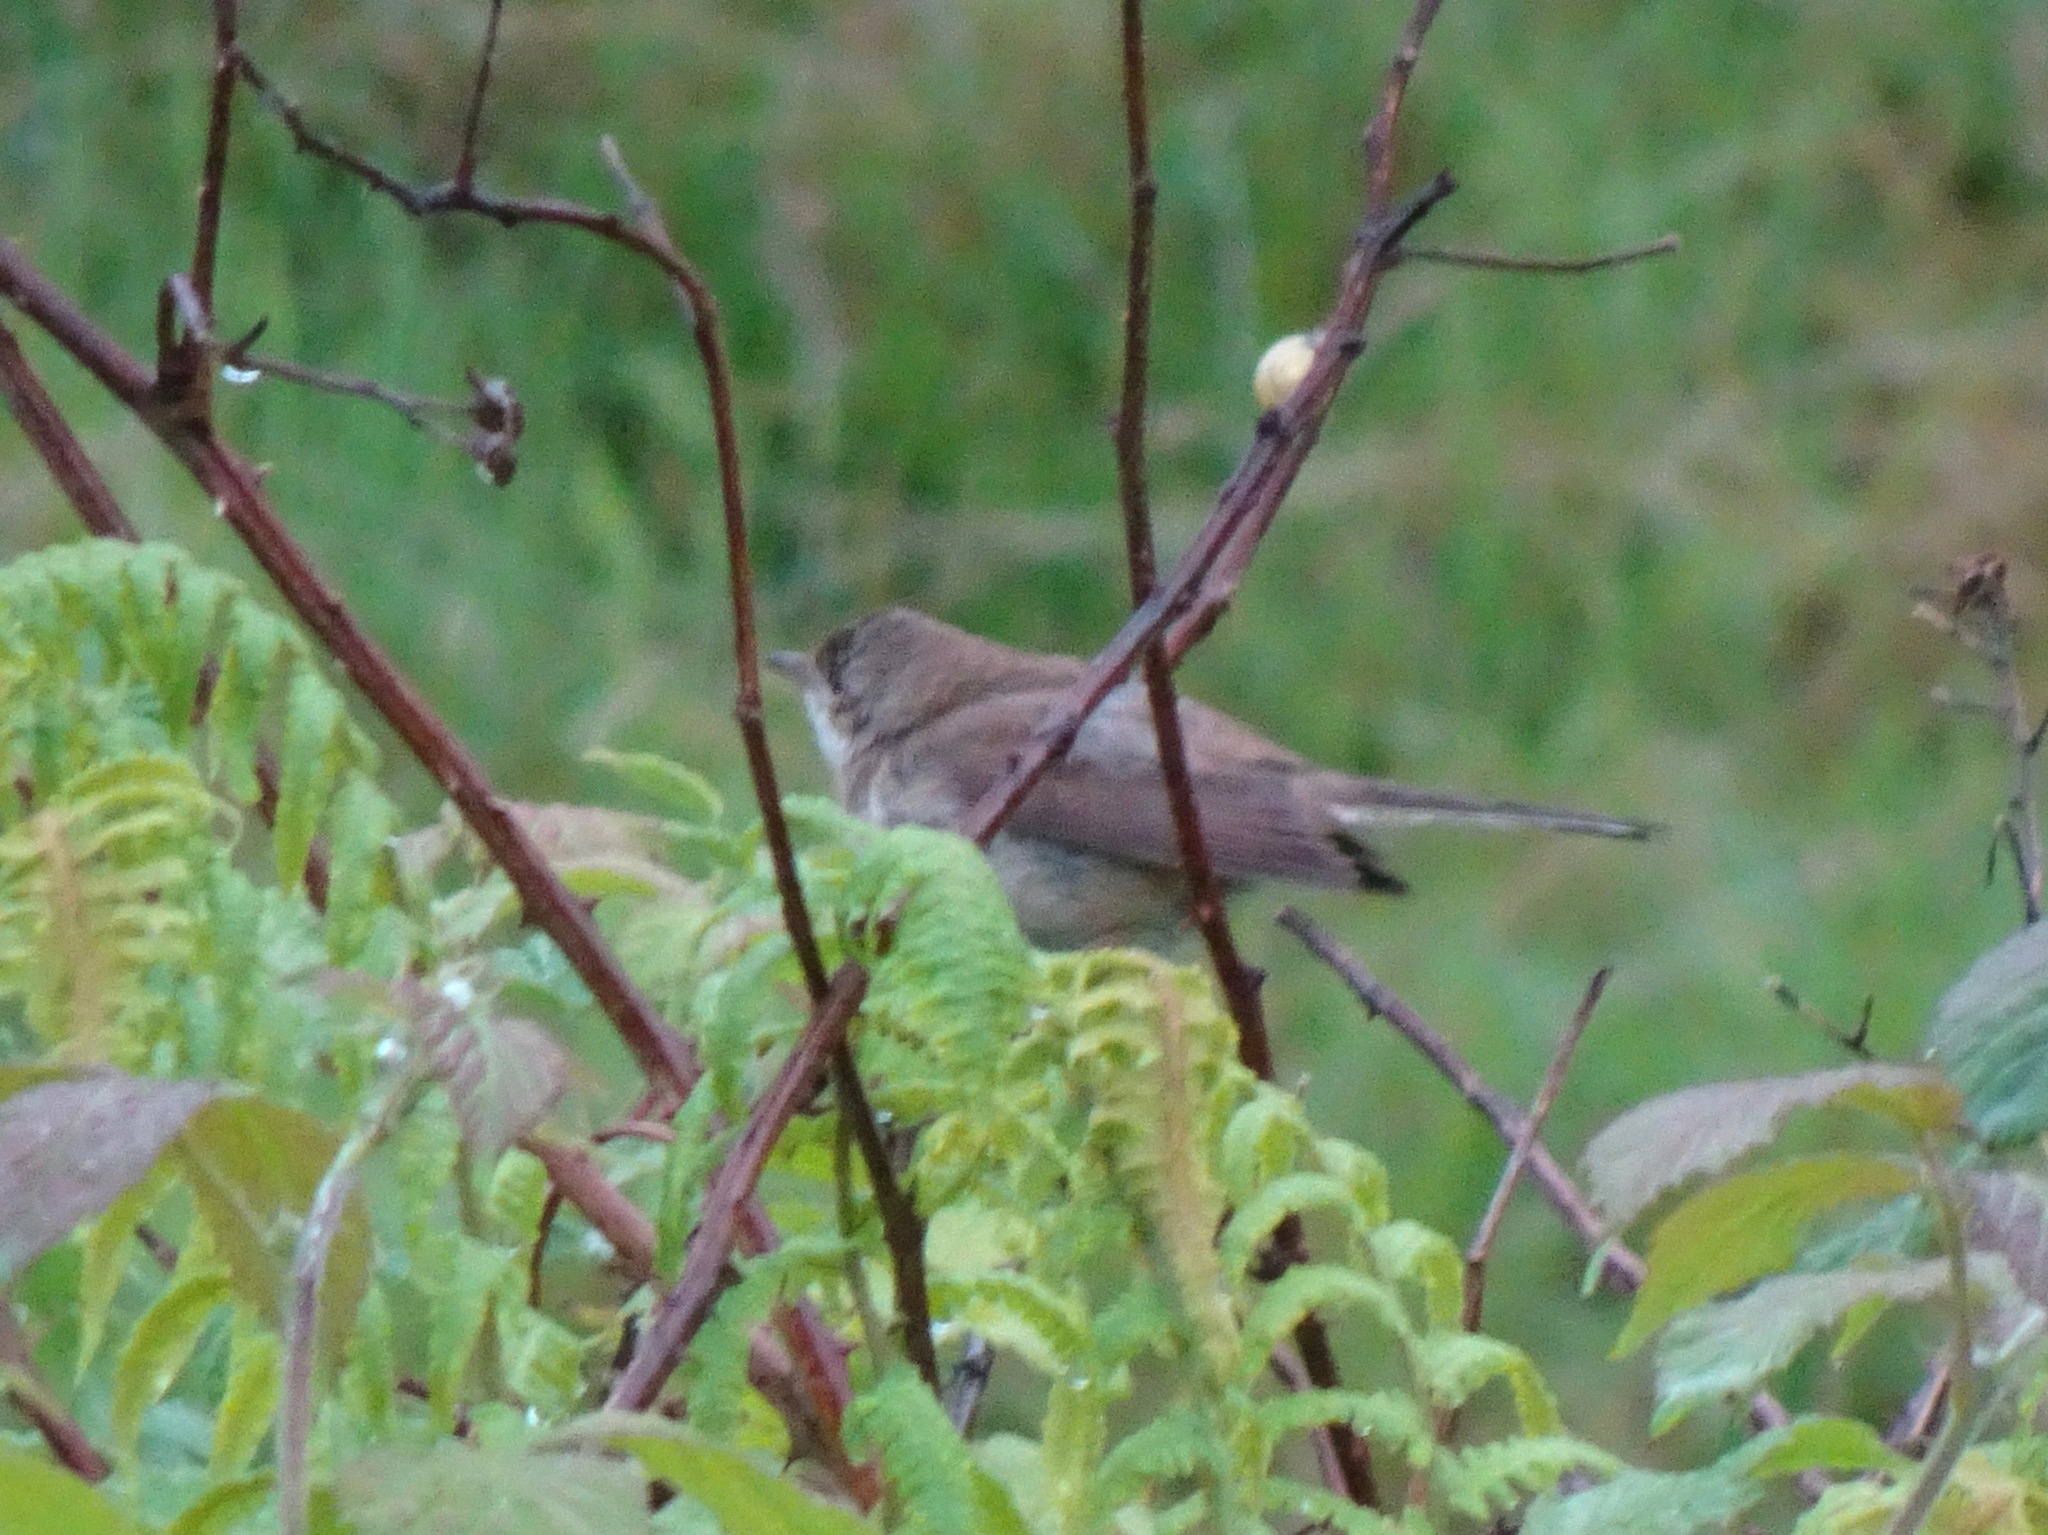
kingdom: Animalia
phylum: Chordata
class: Aves
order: Passeriformes
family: Sylviidae
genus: Sylvia
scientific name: Sylvia communis
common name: Common whitethroat
